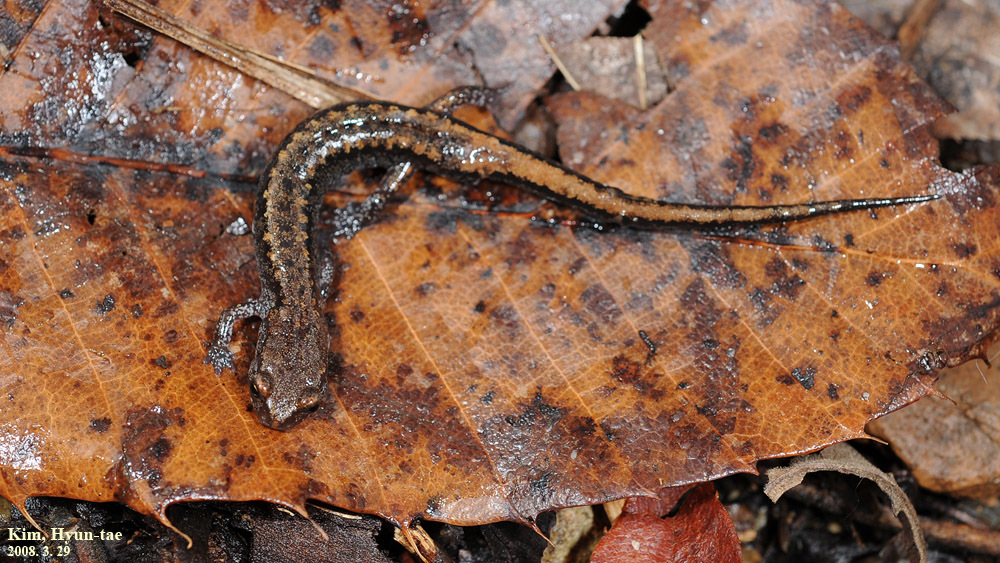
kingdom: Animalia
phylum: Chordata
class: Amphibia
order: Caudata
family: Plethodontidae
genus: Karsenia
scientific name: Karsenia koreana
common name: Korean crevice salamander
